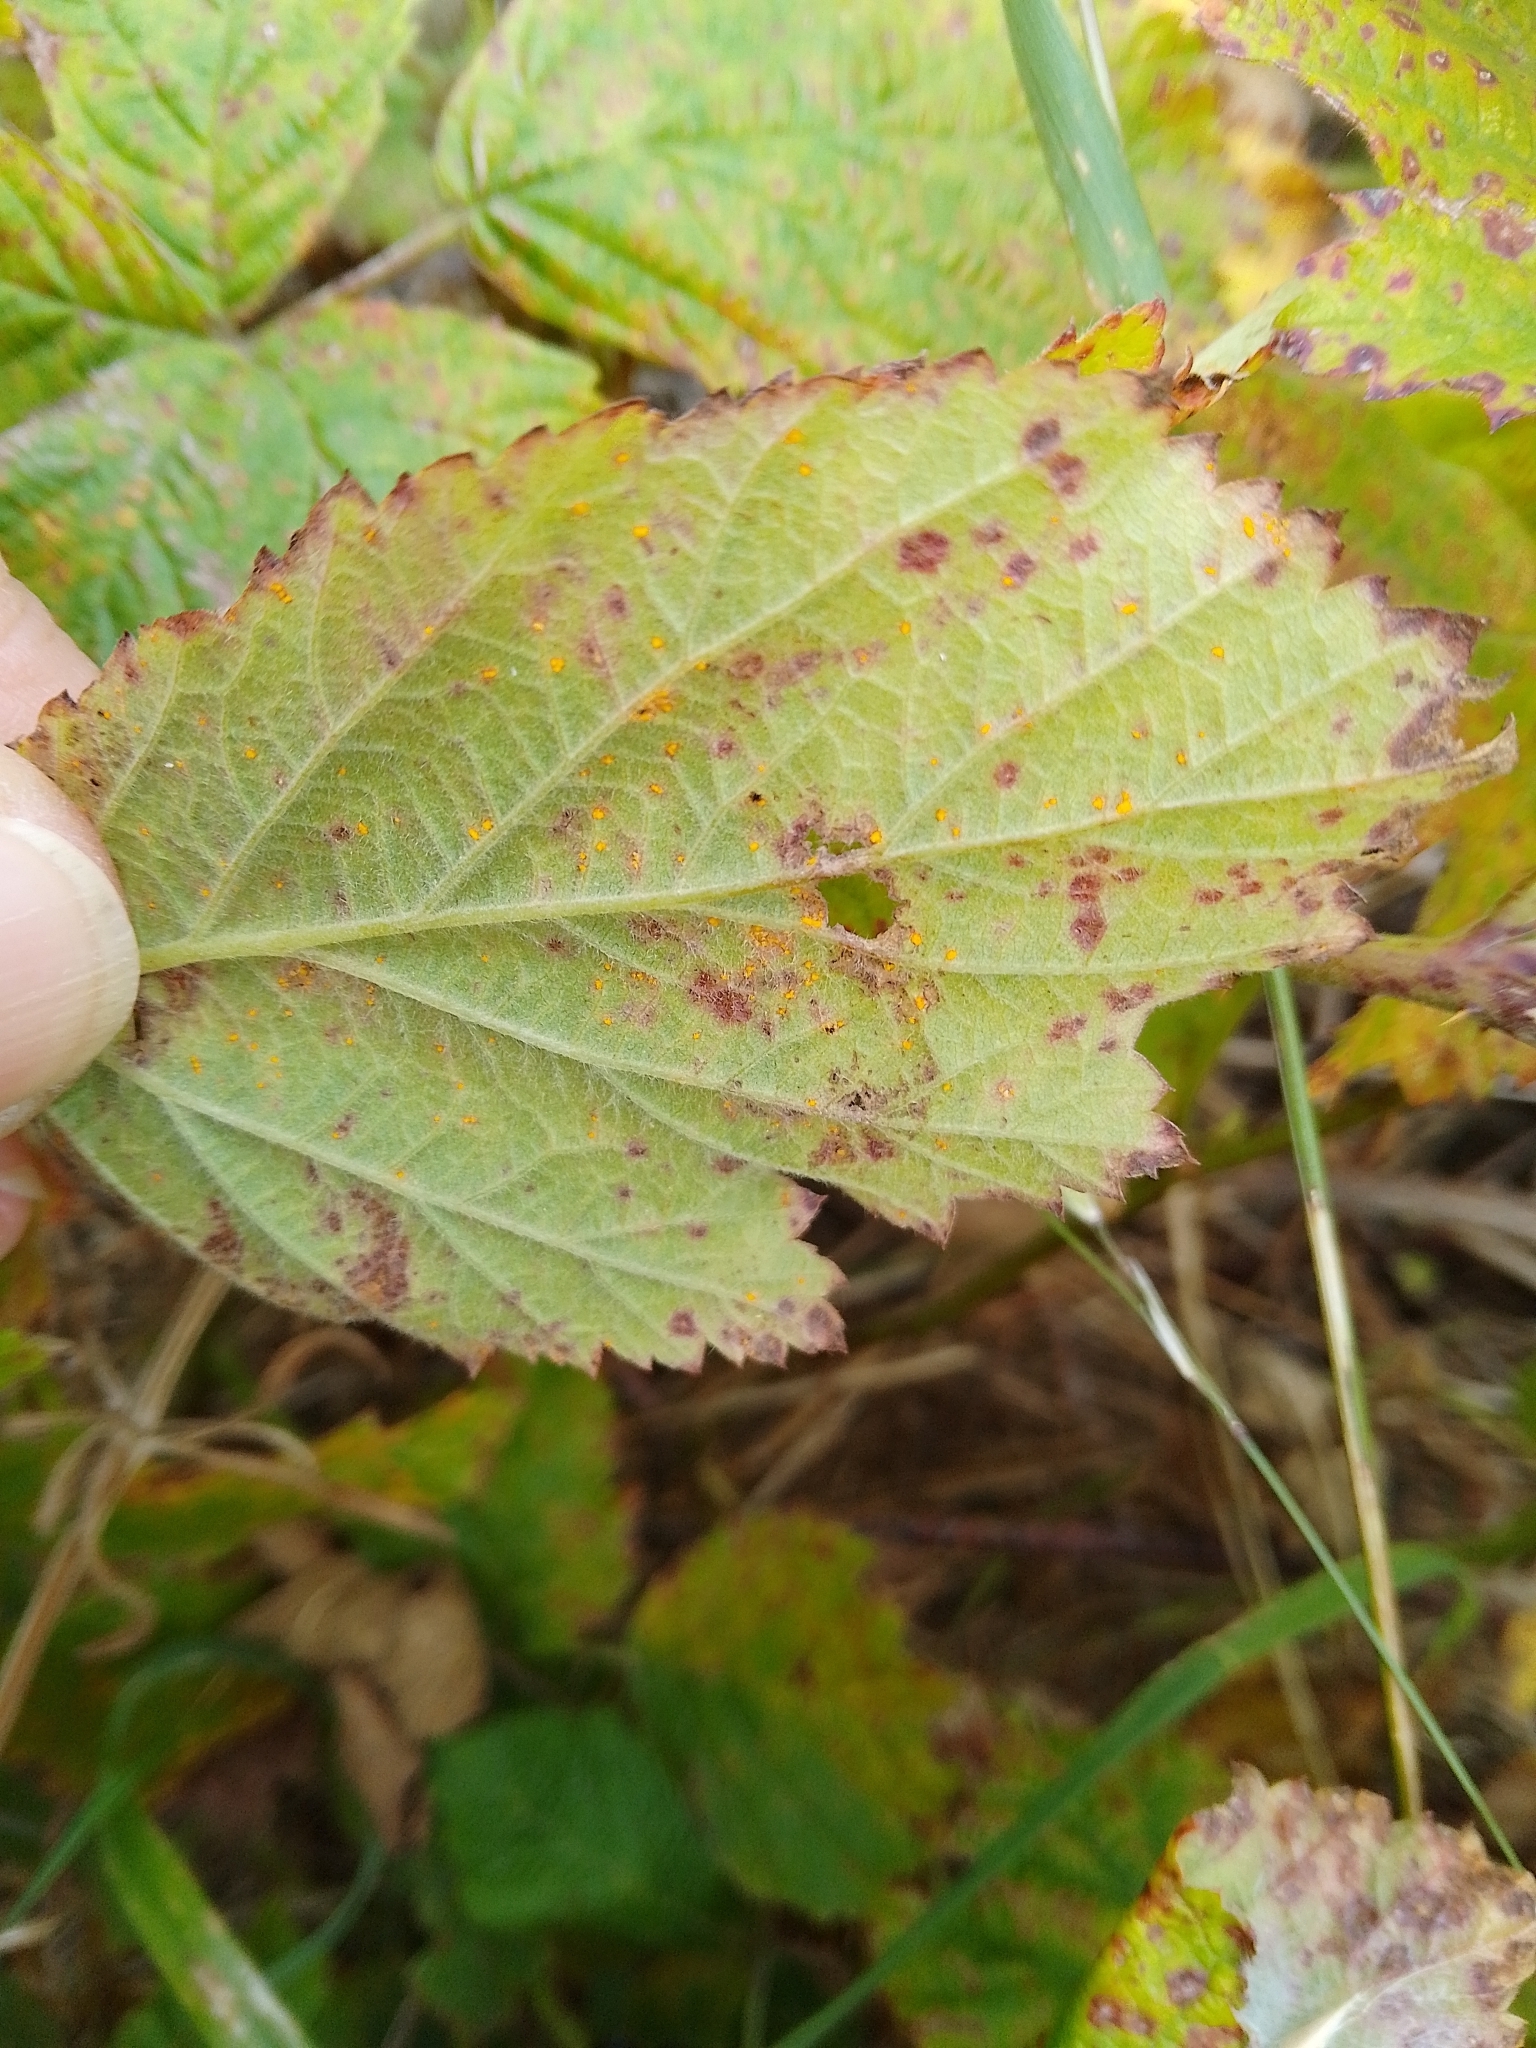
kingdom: Fungi
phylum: Basidiomycota
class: Pucciniomycetes
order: Pucciniales
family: Phragmidiaceae
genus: Phragmidium
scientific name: Phragmidium
